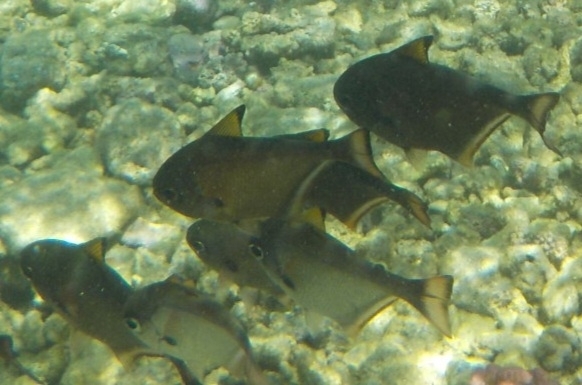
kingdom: Animalia
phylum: Chordata
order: Perciformes
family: Pempheridae
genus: Pempheris
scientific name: Pempheris bexillon
